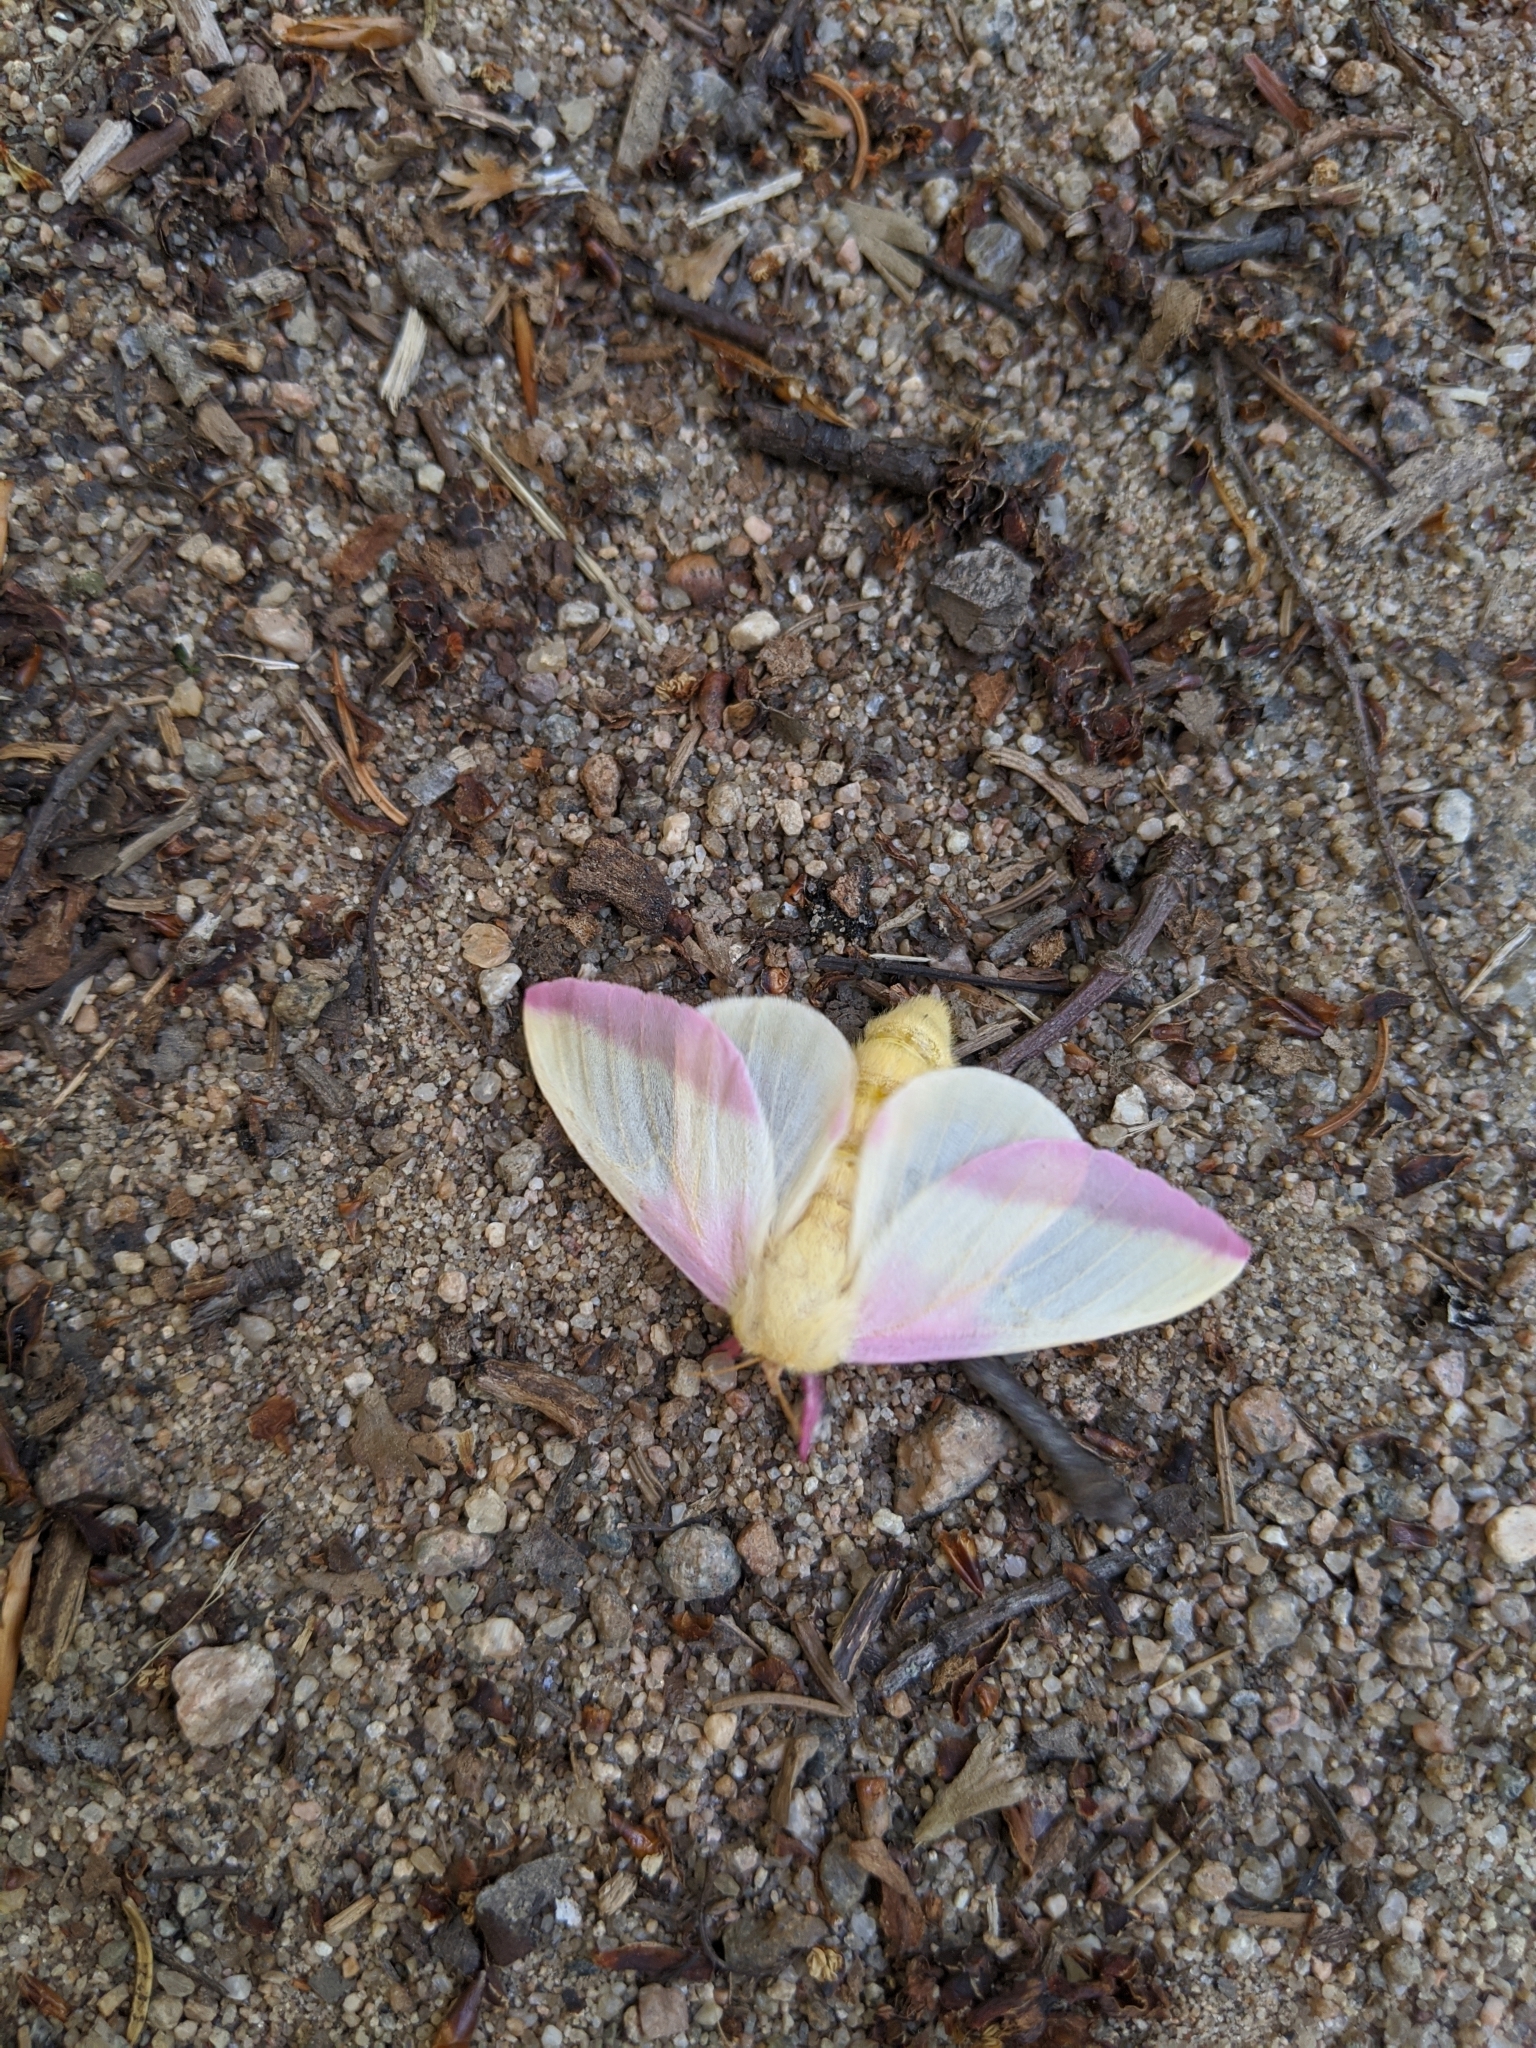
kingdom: Animalia
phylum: Arthropoda
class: Insecta
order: Lepidoptera
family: Saturniidae
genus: Dryocampa
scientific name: Dryocampa rubicunda
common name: Rosy maple moth
